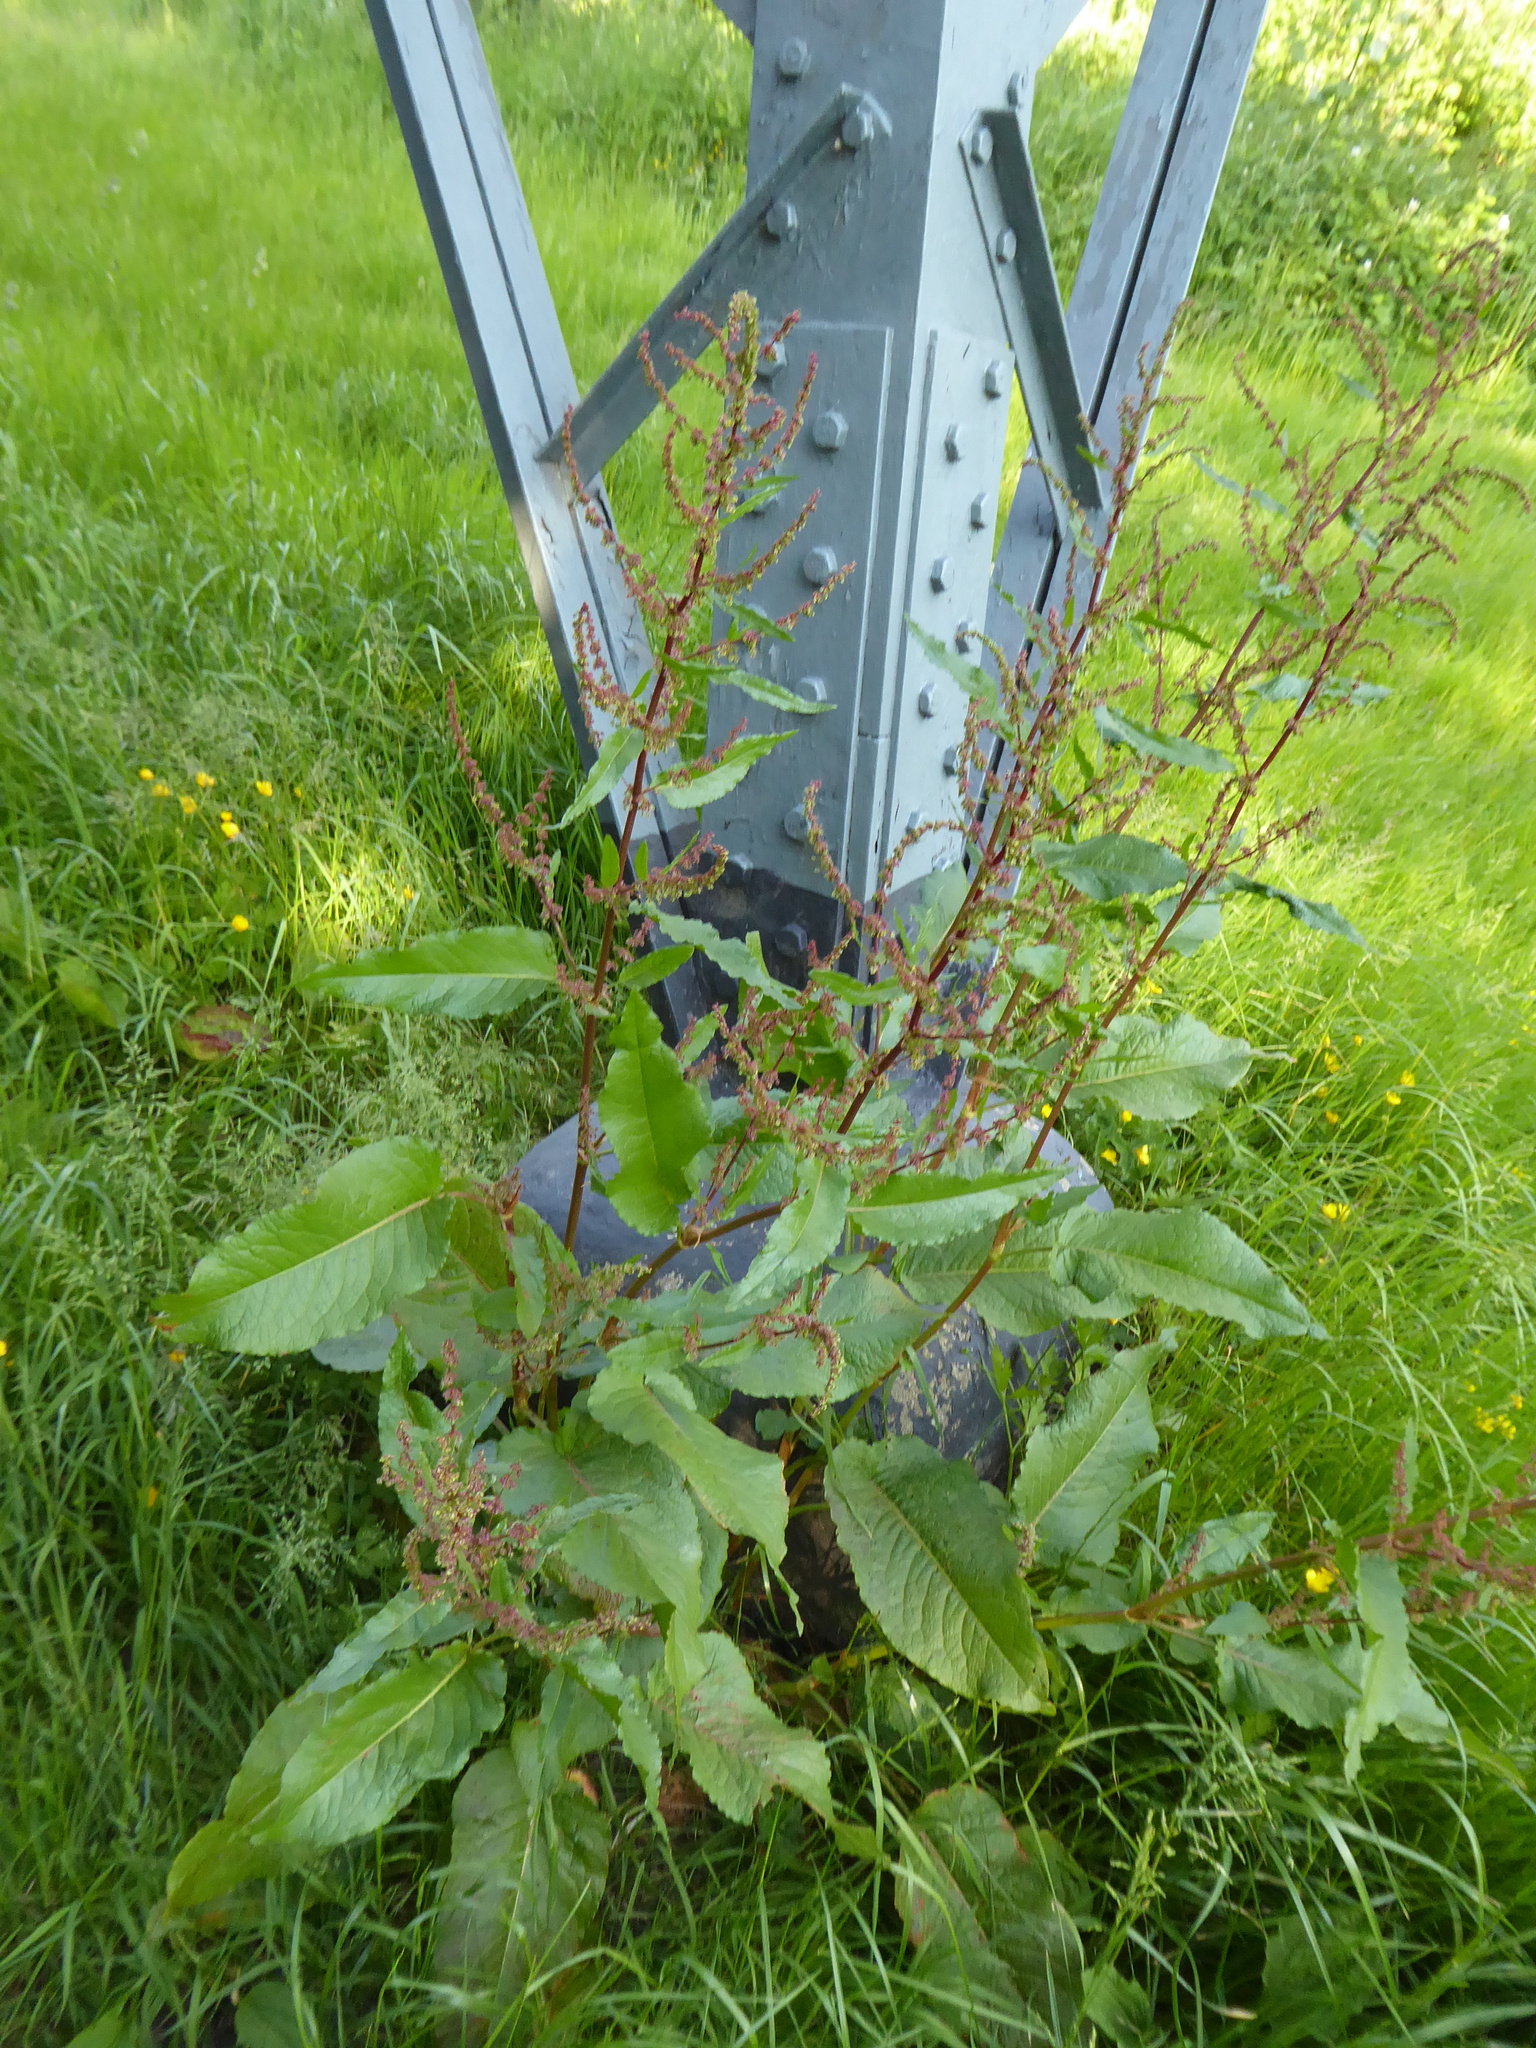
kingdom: Plantae
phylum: Tracheophyta
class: Magnoliopsida
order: Caryophyllales
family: Polygonaceae
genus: Rumex
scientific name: Rumex obtusifolius
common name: Bitter dock
